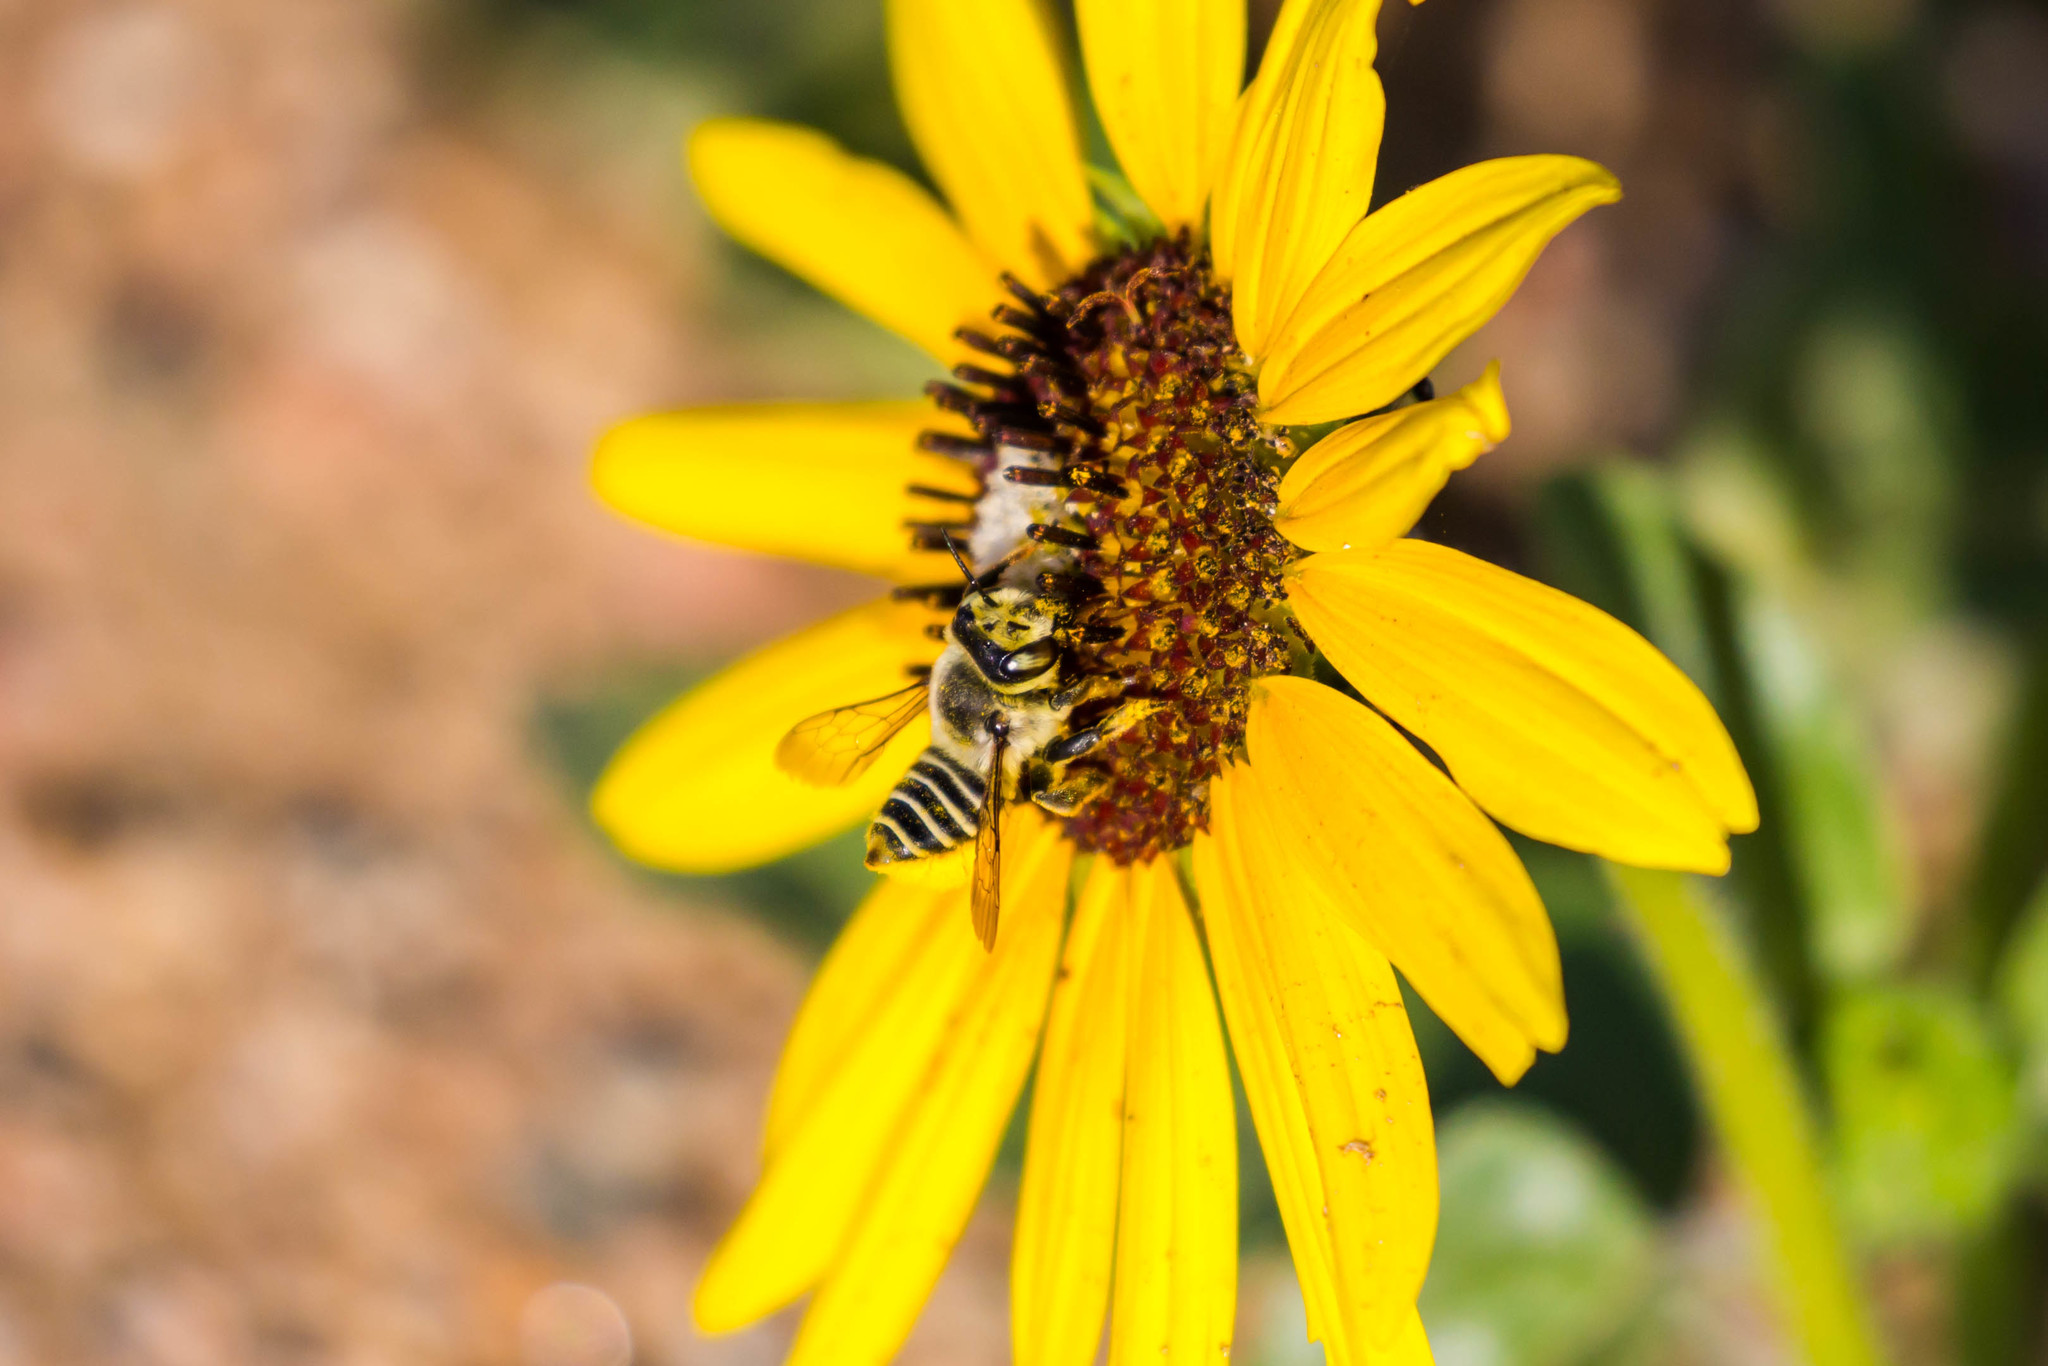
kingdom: Animalia
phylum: Arthropoda
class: Insecta
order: Hymenoptera
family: Megachilidae
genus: Megachile
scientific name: Megachile parallela
